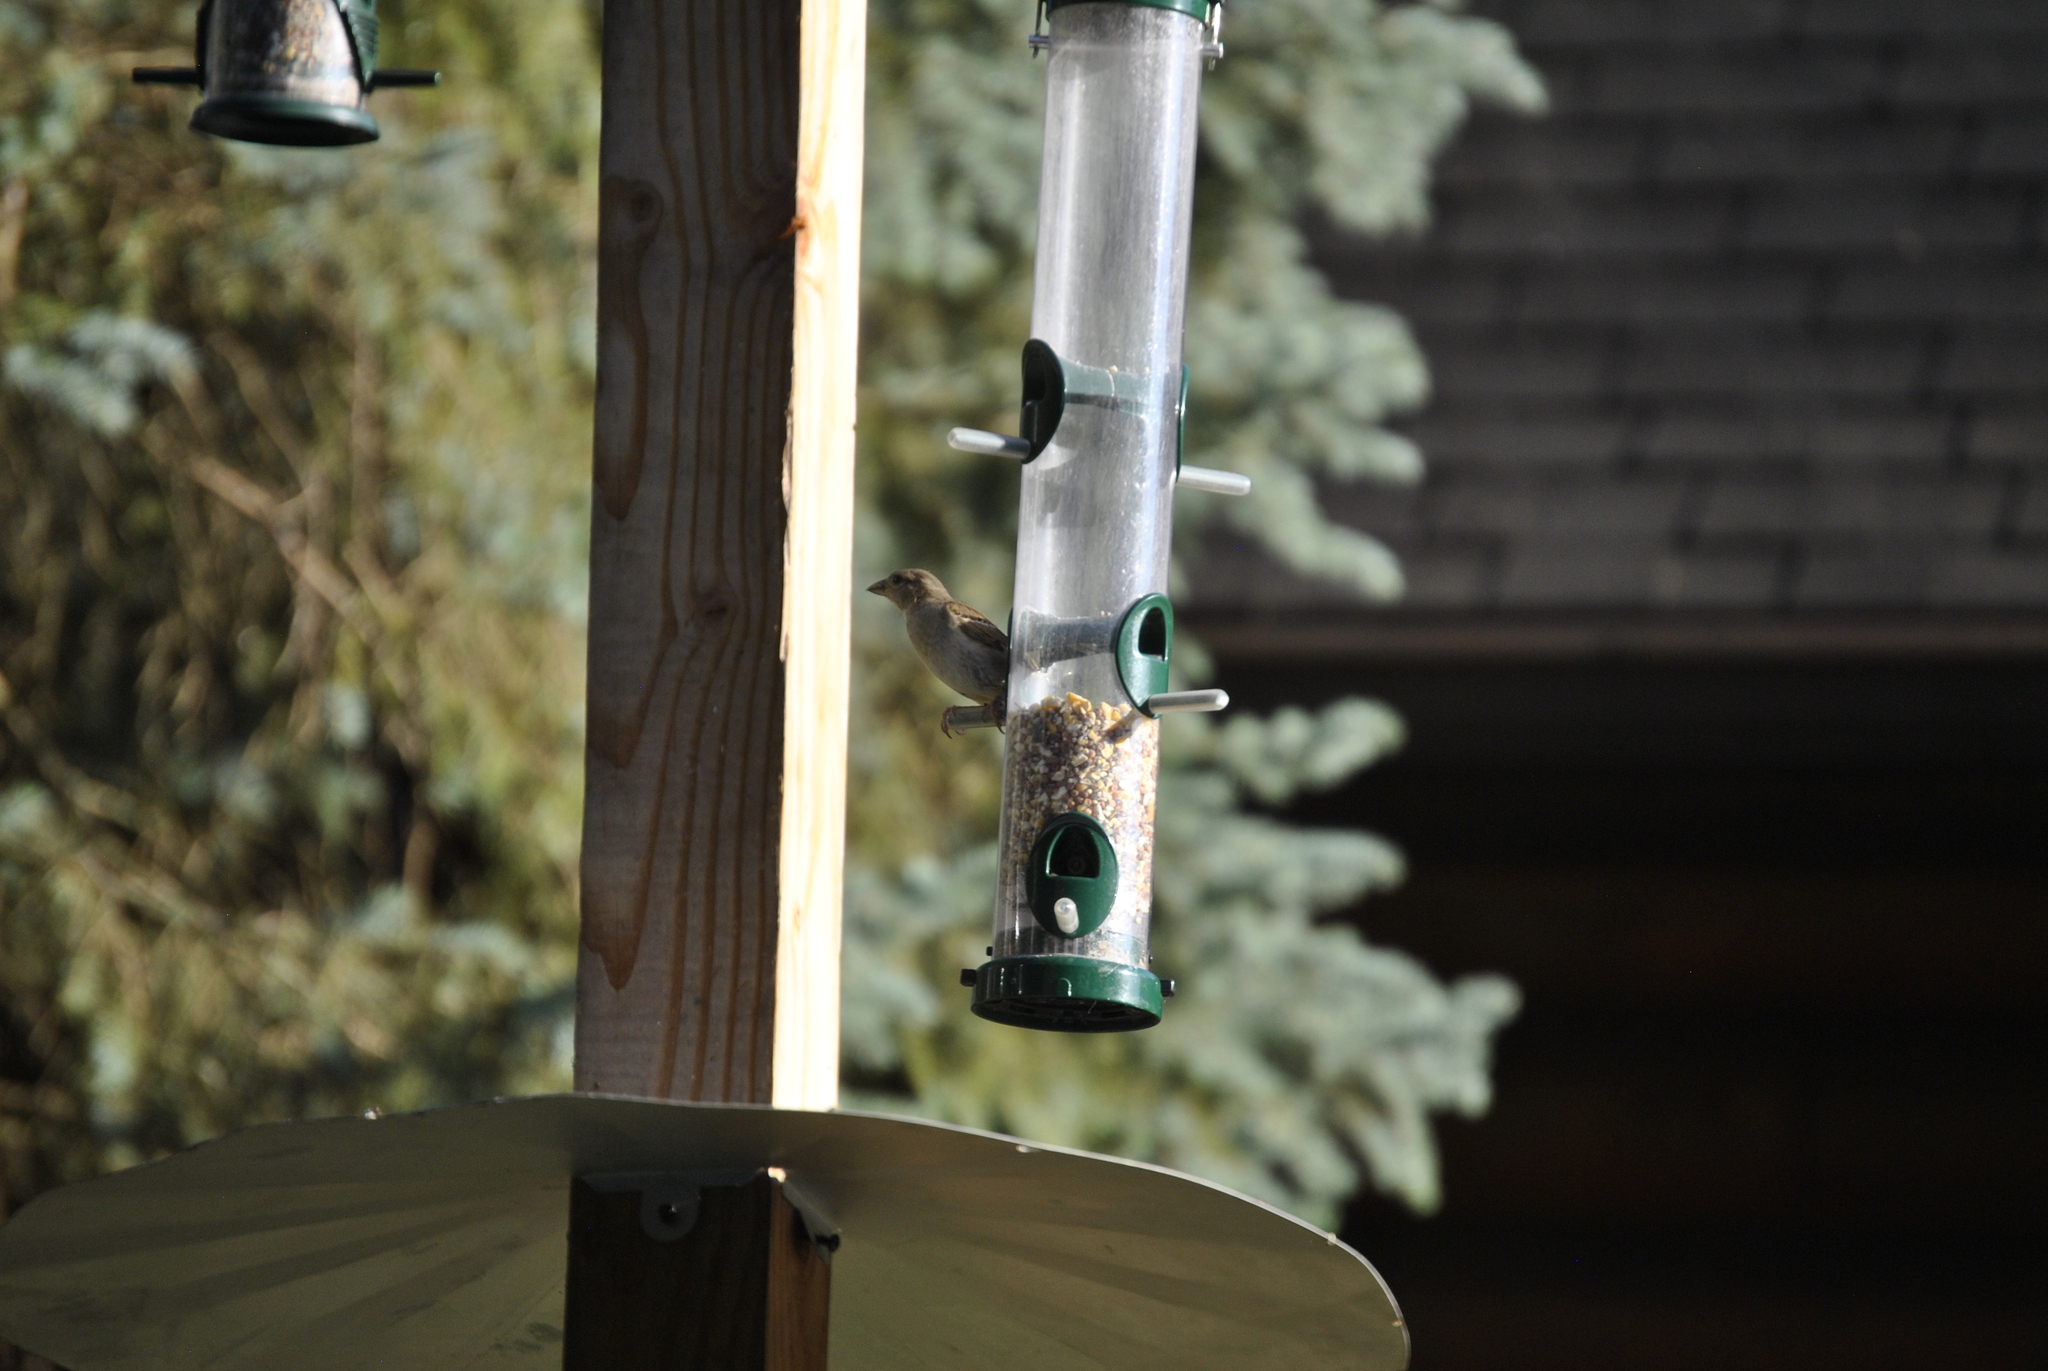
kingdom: Animalia
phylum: Chordata
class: Aves
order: Passeriformes
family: Passeridae
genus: Passer
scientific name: Passer domesticus
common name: House sparrow
